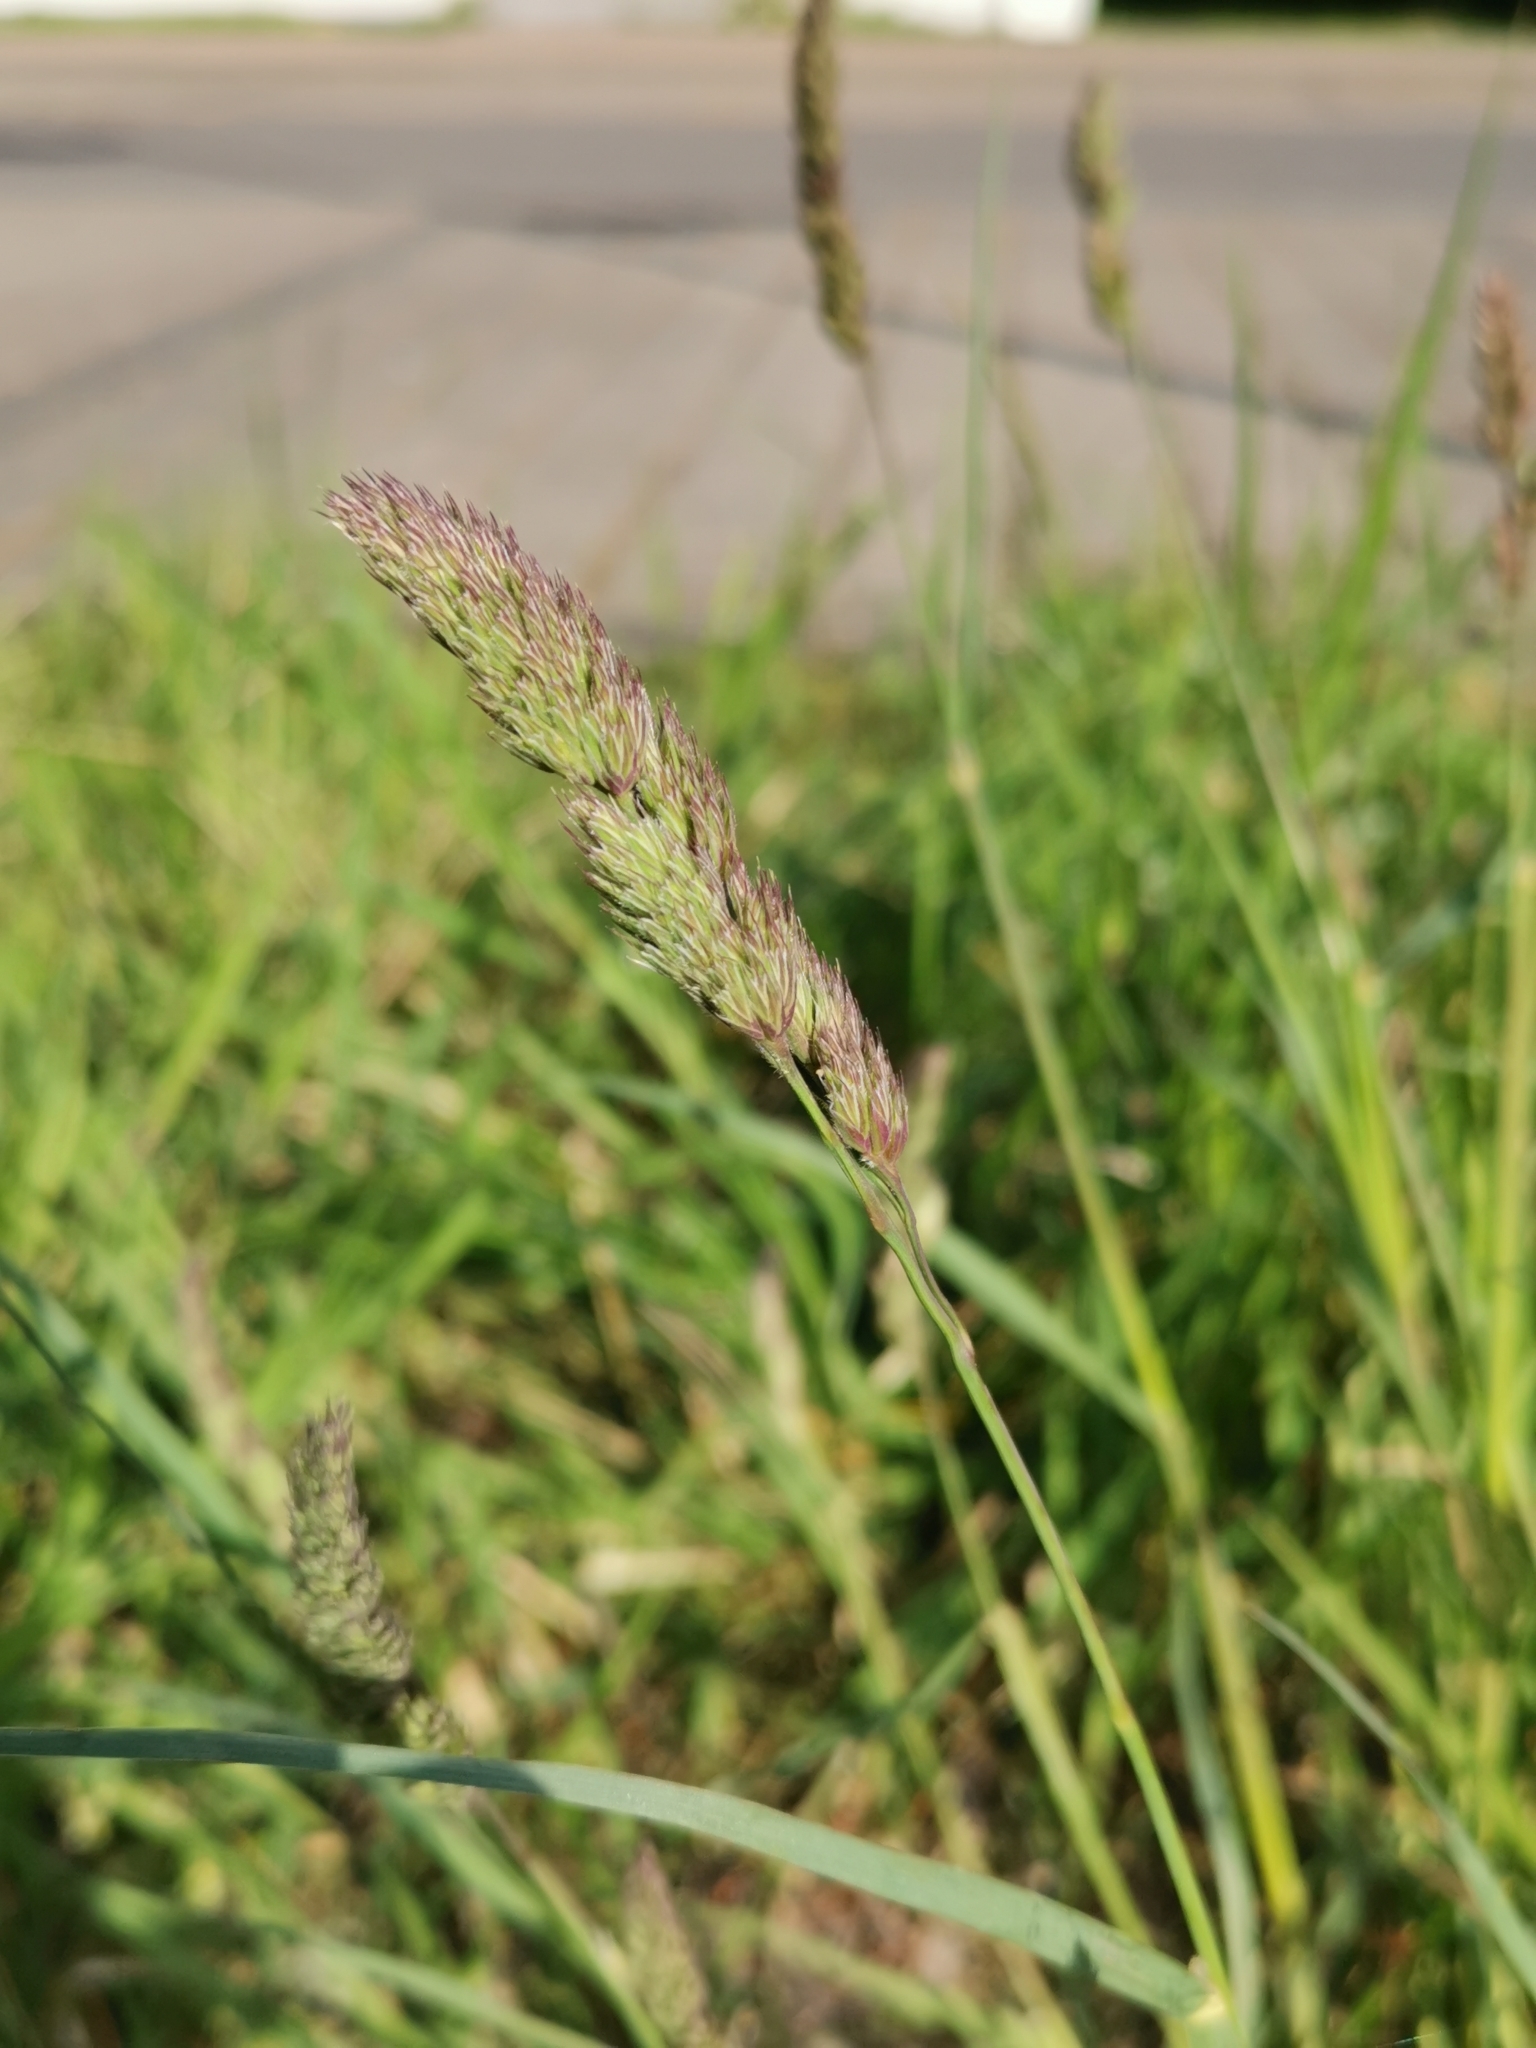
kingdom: Plantae
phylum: Tracheophyta
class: Liliopsida
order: Poales
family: Poaceae
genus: Dactylis
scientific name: Dactylis glomerata
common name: Orchardgrass
